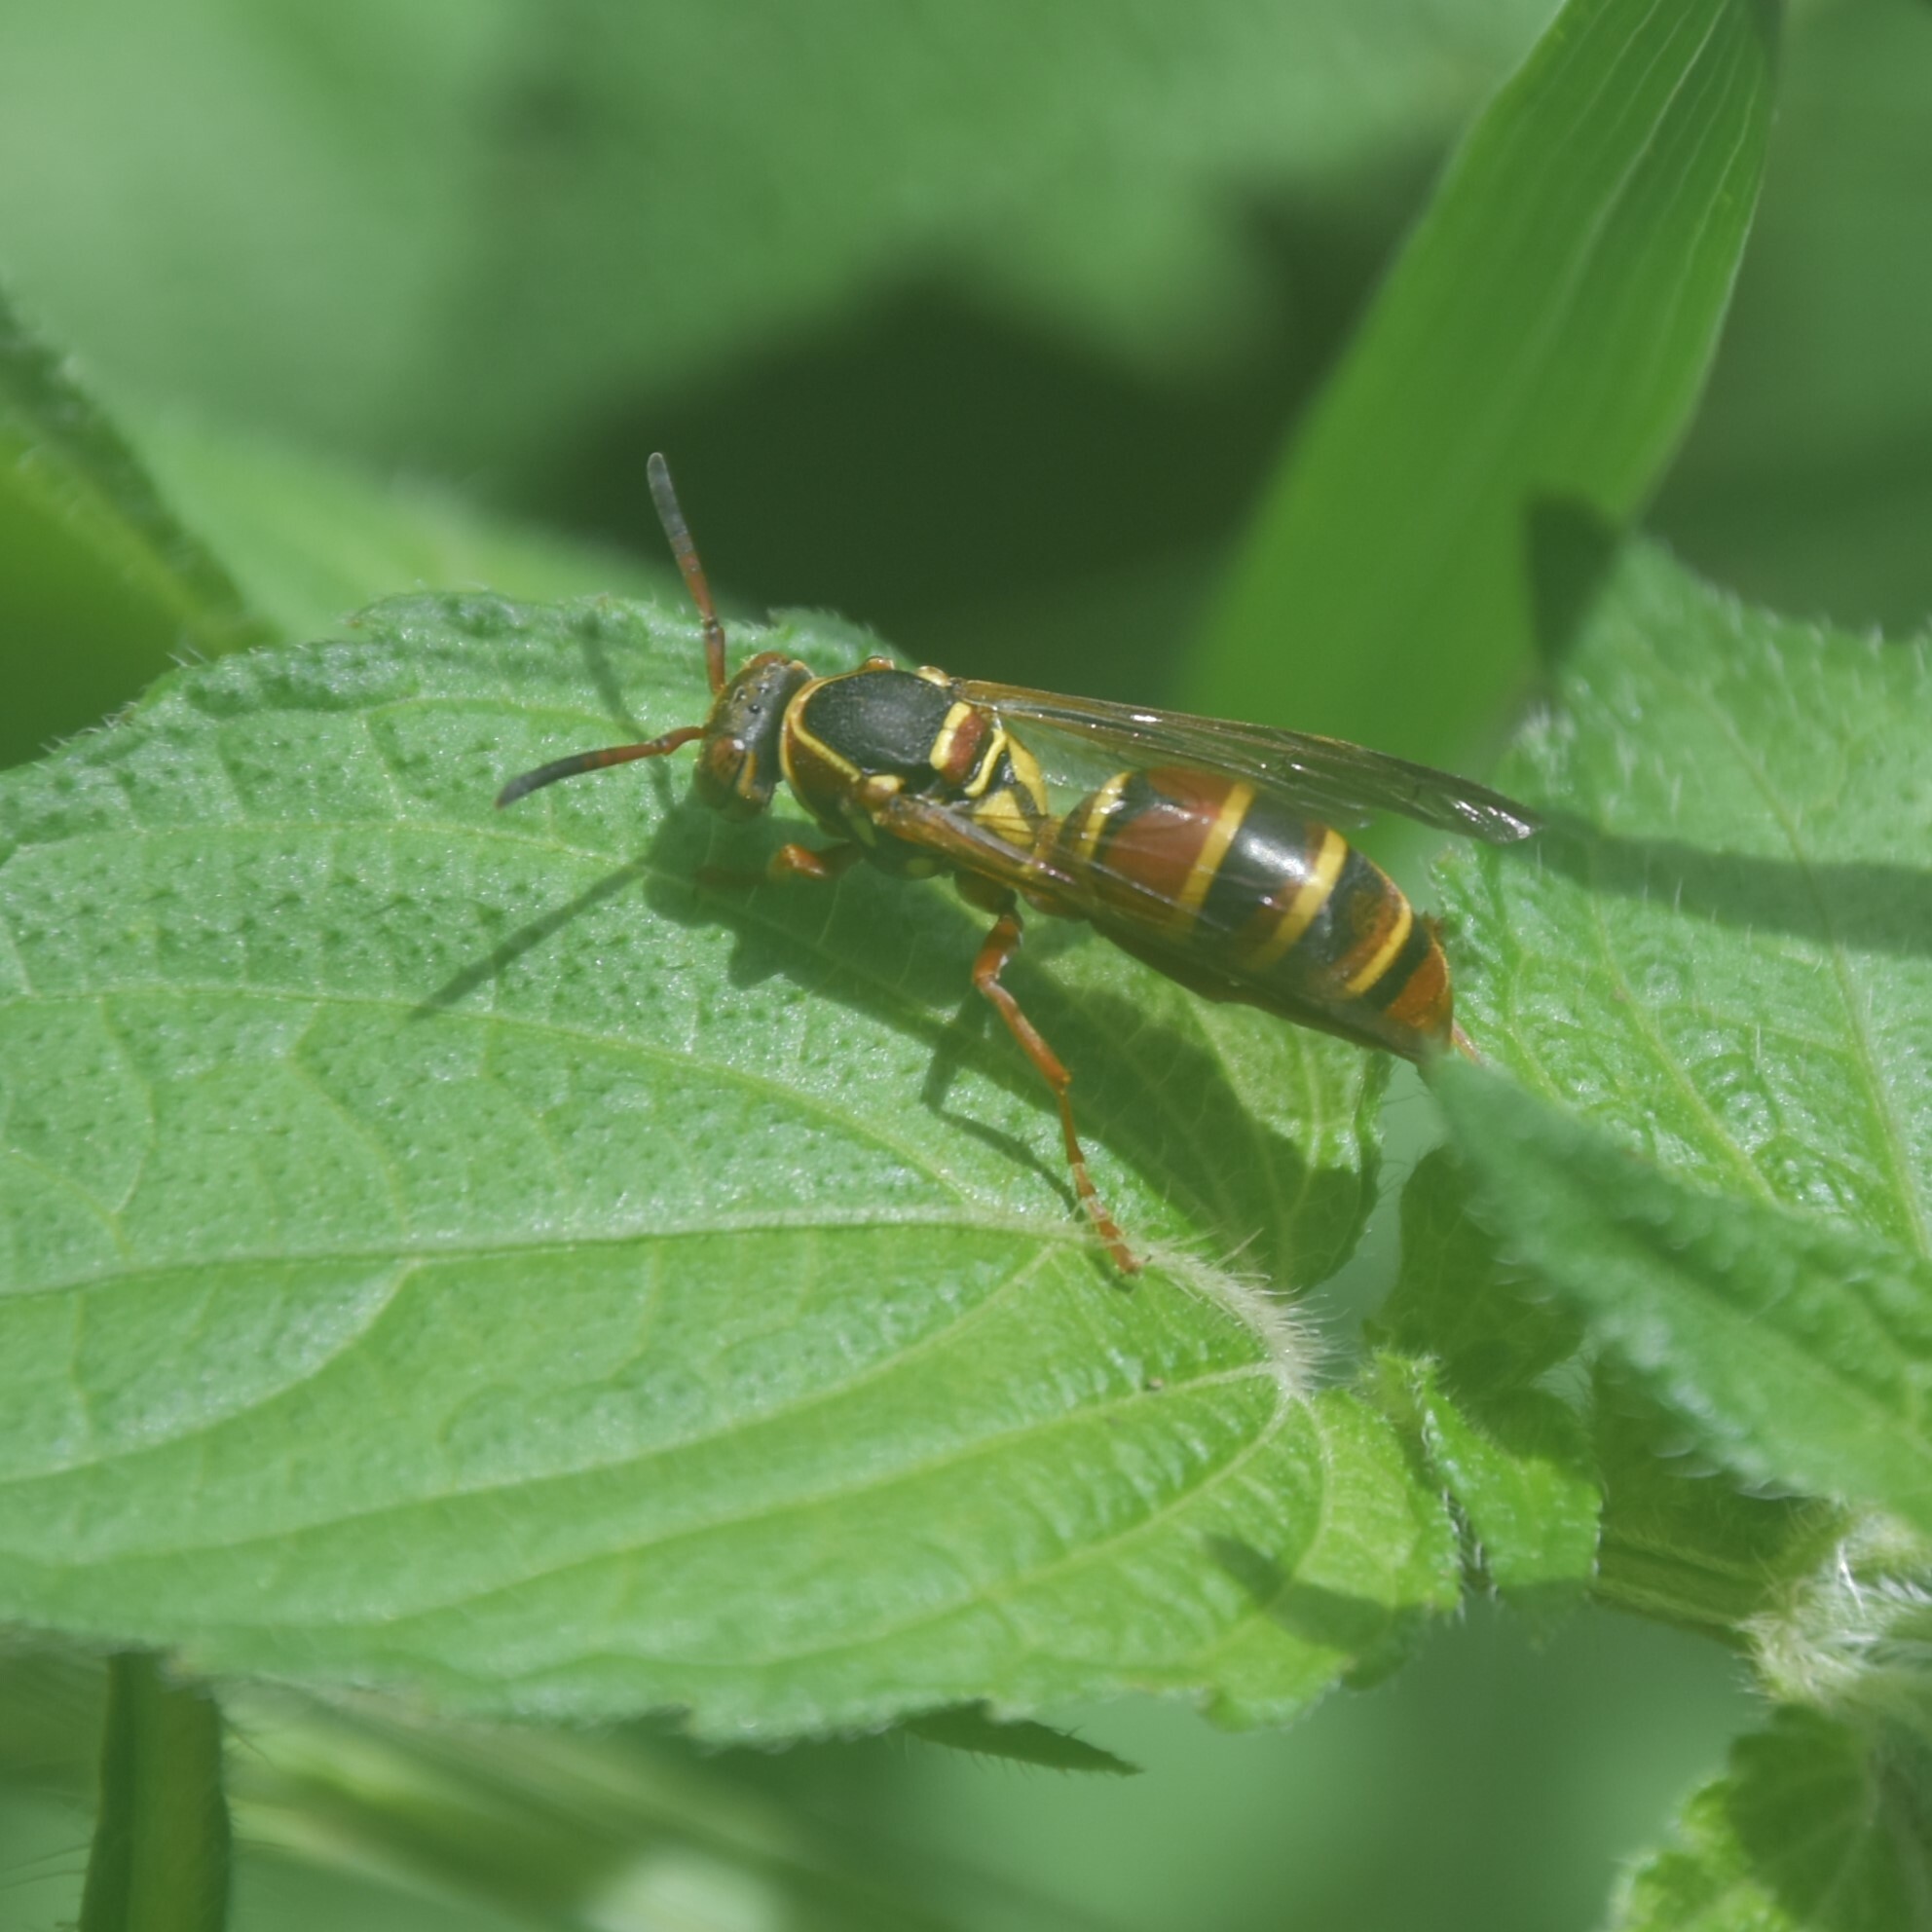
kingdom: Animalia
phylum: Arthropoda
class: Insecta
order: Hymenoptera
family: Eumenidae
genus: Knemodynerus
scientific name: Knemodynerus multimaculatus
